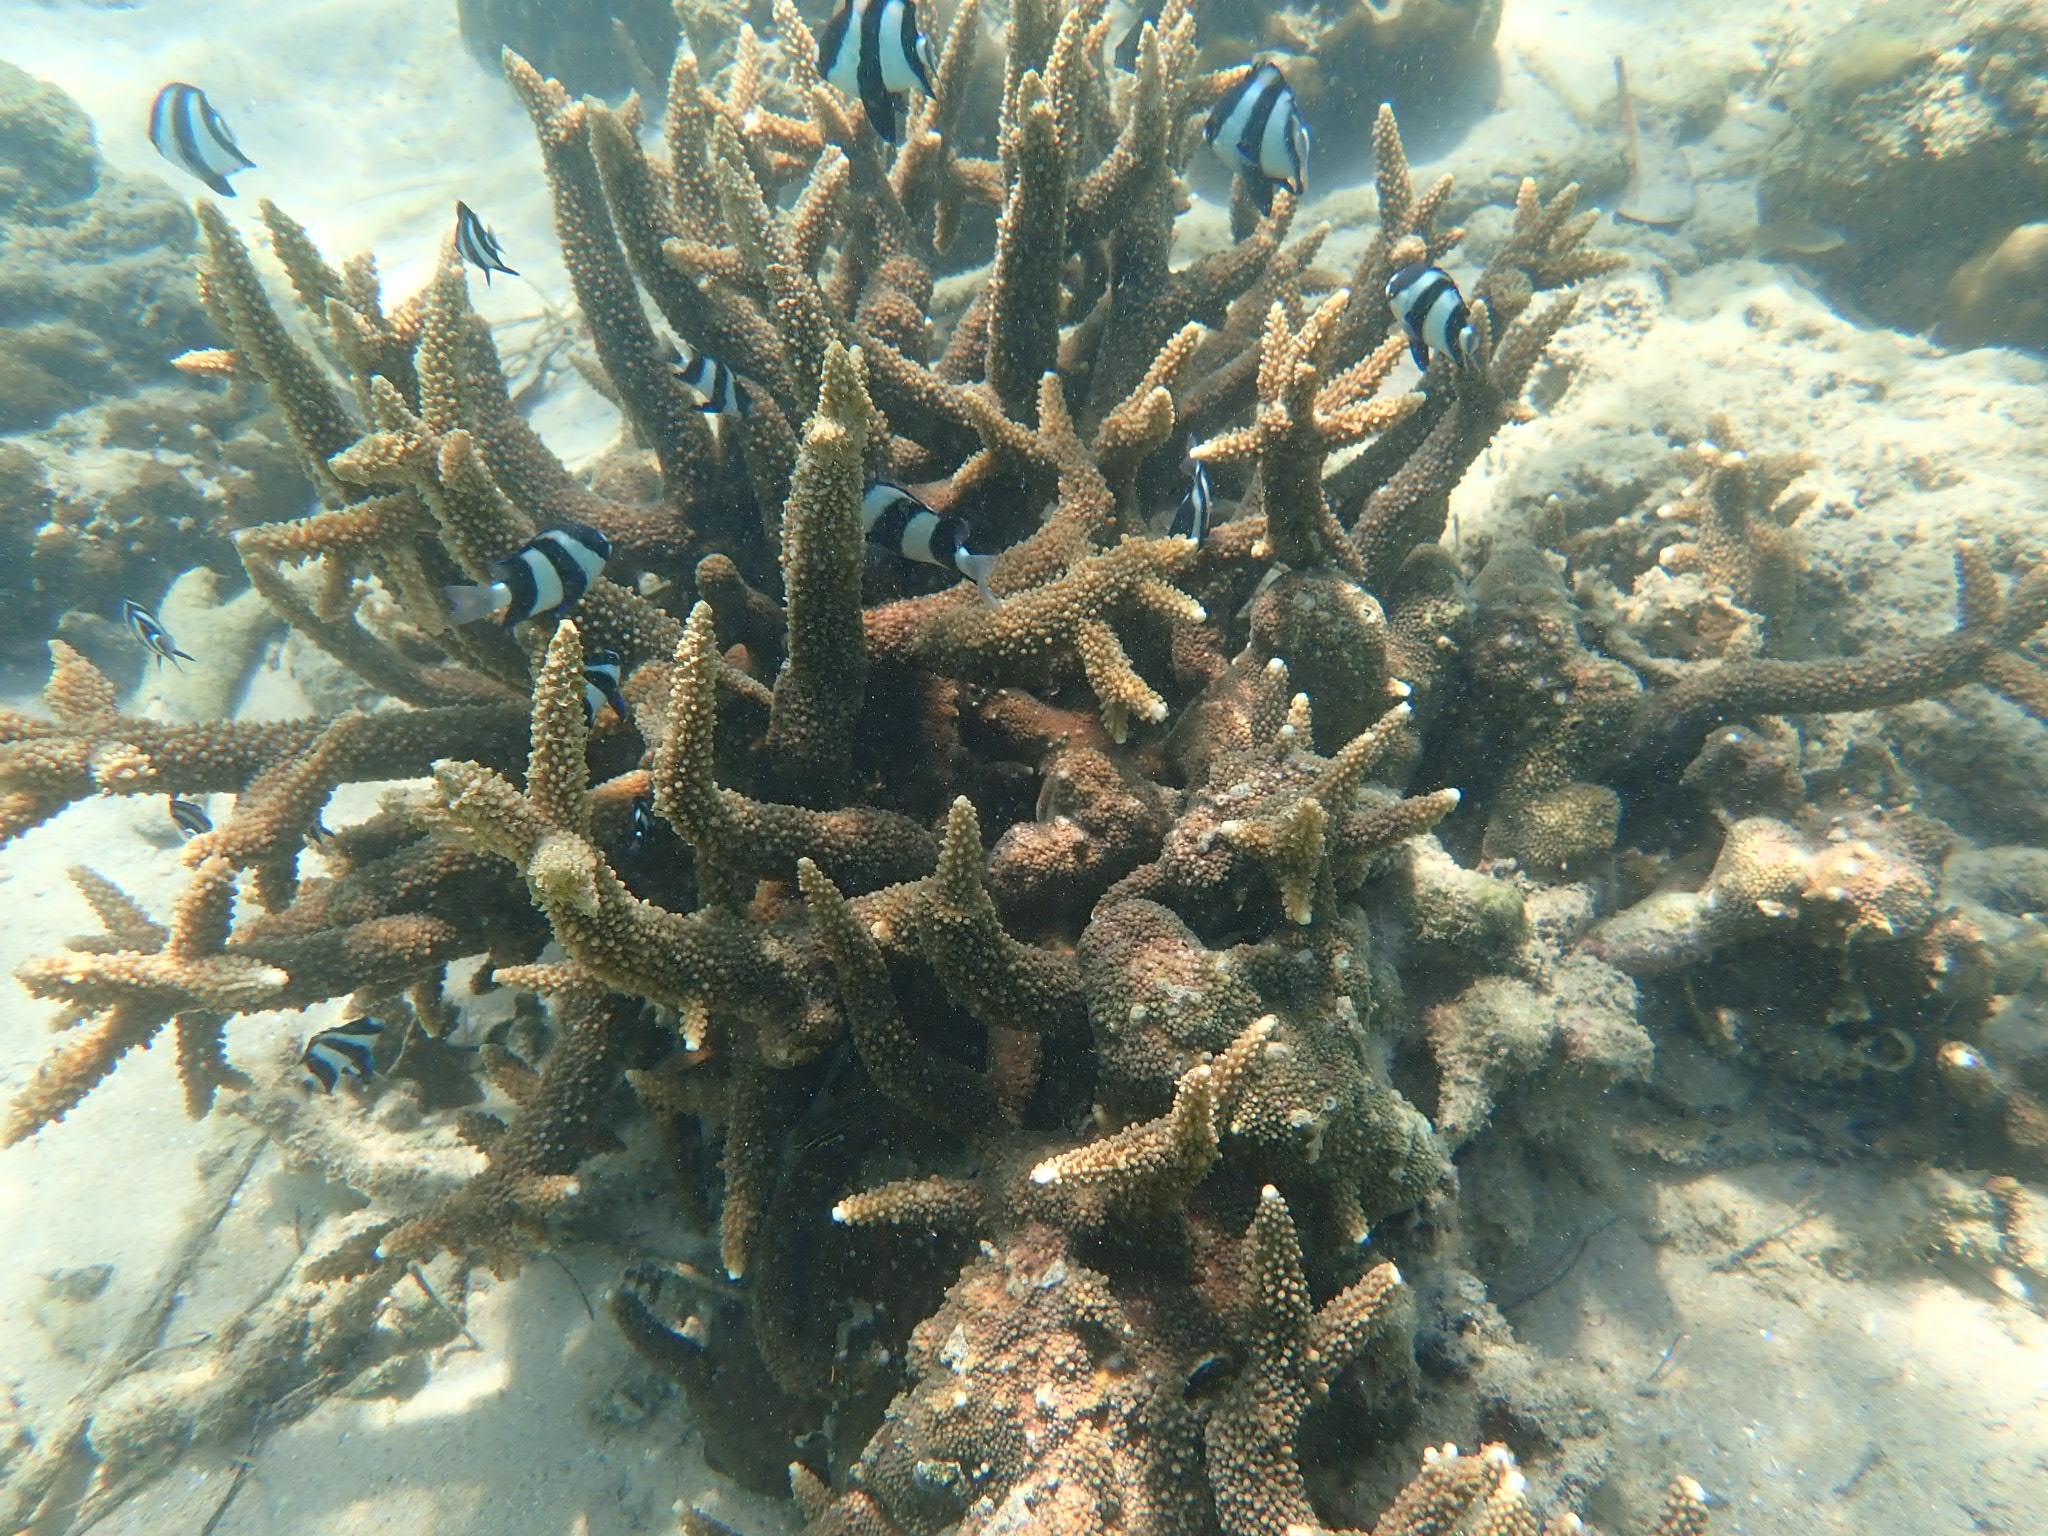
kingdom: Animalia
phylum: Chordata
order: Perciformes
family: Pomacentridae
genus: Dascyllus
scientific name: Dascyllus abudafur
